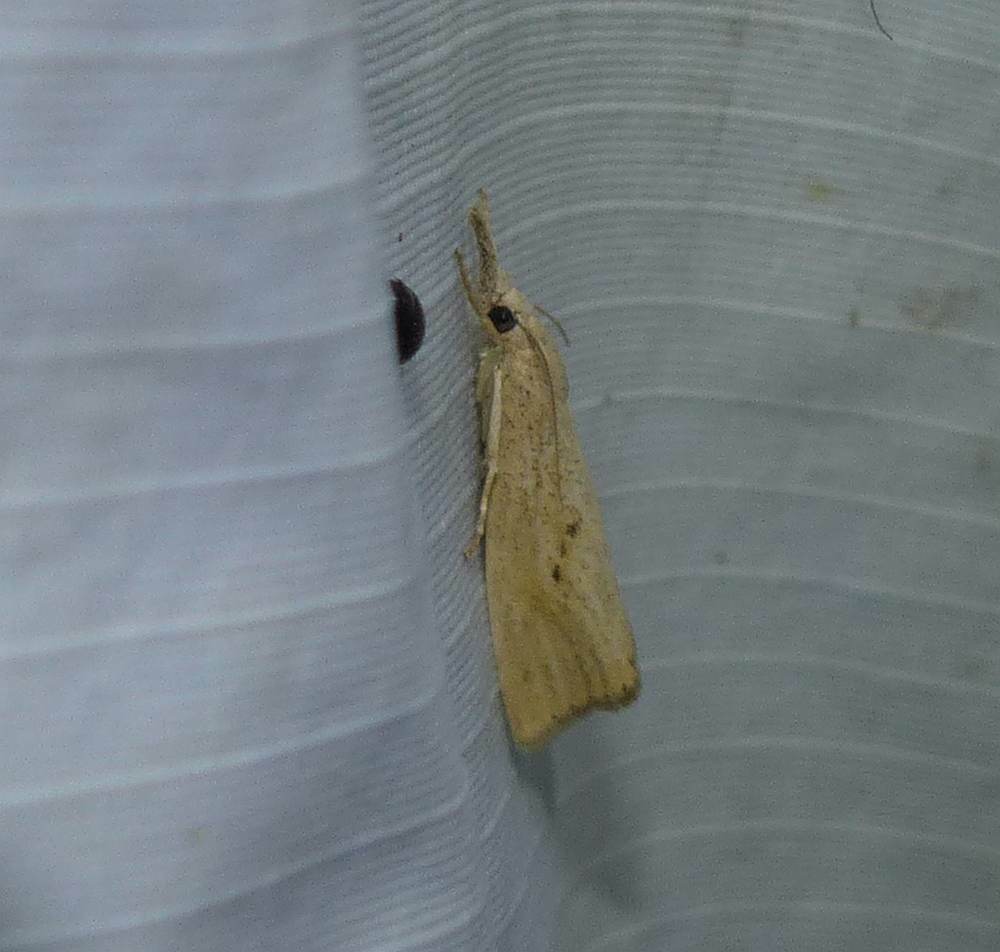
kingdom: Animalia
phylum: Arthropoda
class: Insecta
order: Lepidoptera
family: Crambidae
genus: Chilo
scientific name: Chilo plejadellus
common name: Rice stalk borer moth
